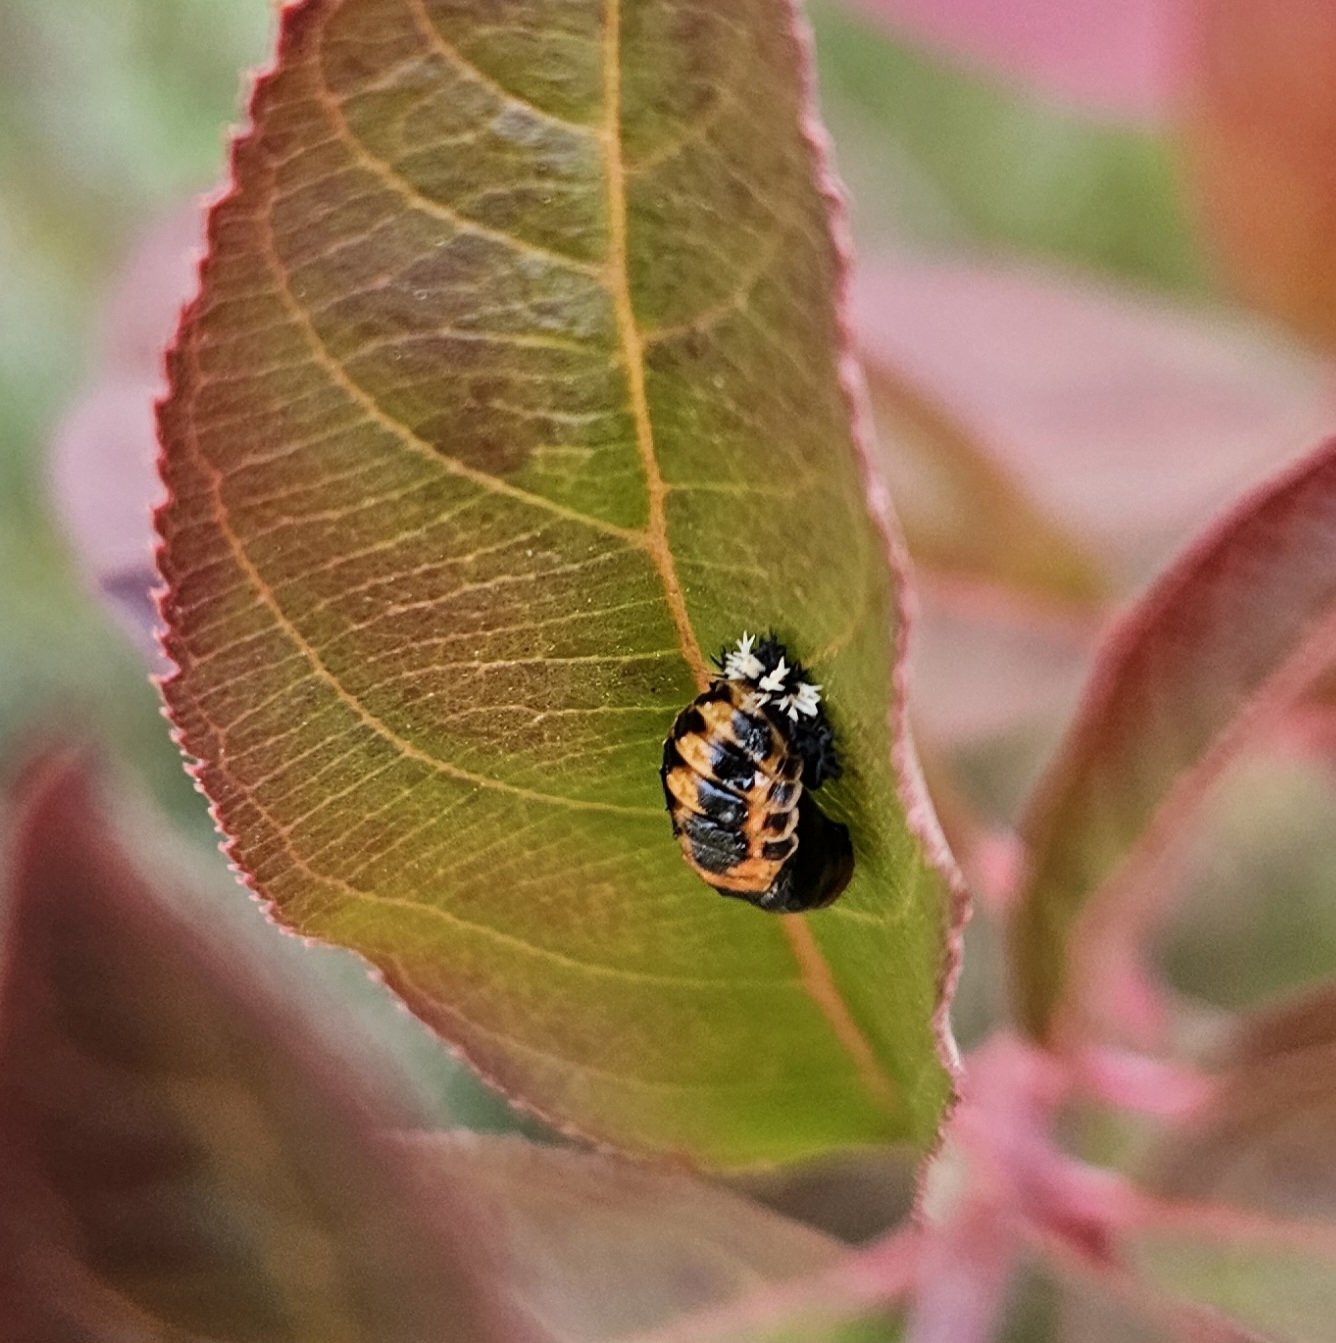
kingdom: Animalia
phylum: Arthropoda
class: Insecta
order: Coleoptera
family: Coccinellidae
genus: Harmonia
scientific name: Harmonia axyridis
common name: Harlequin ladybird
